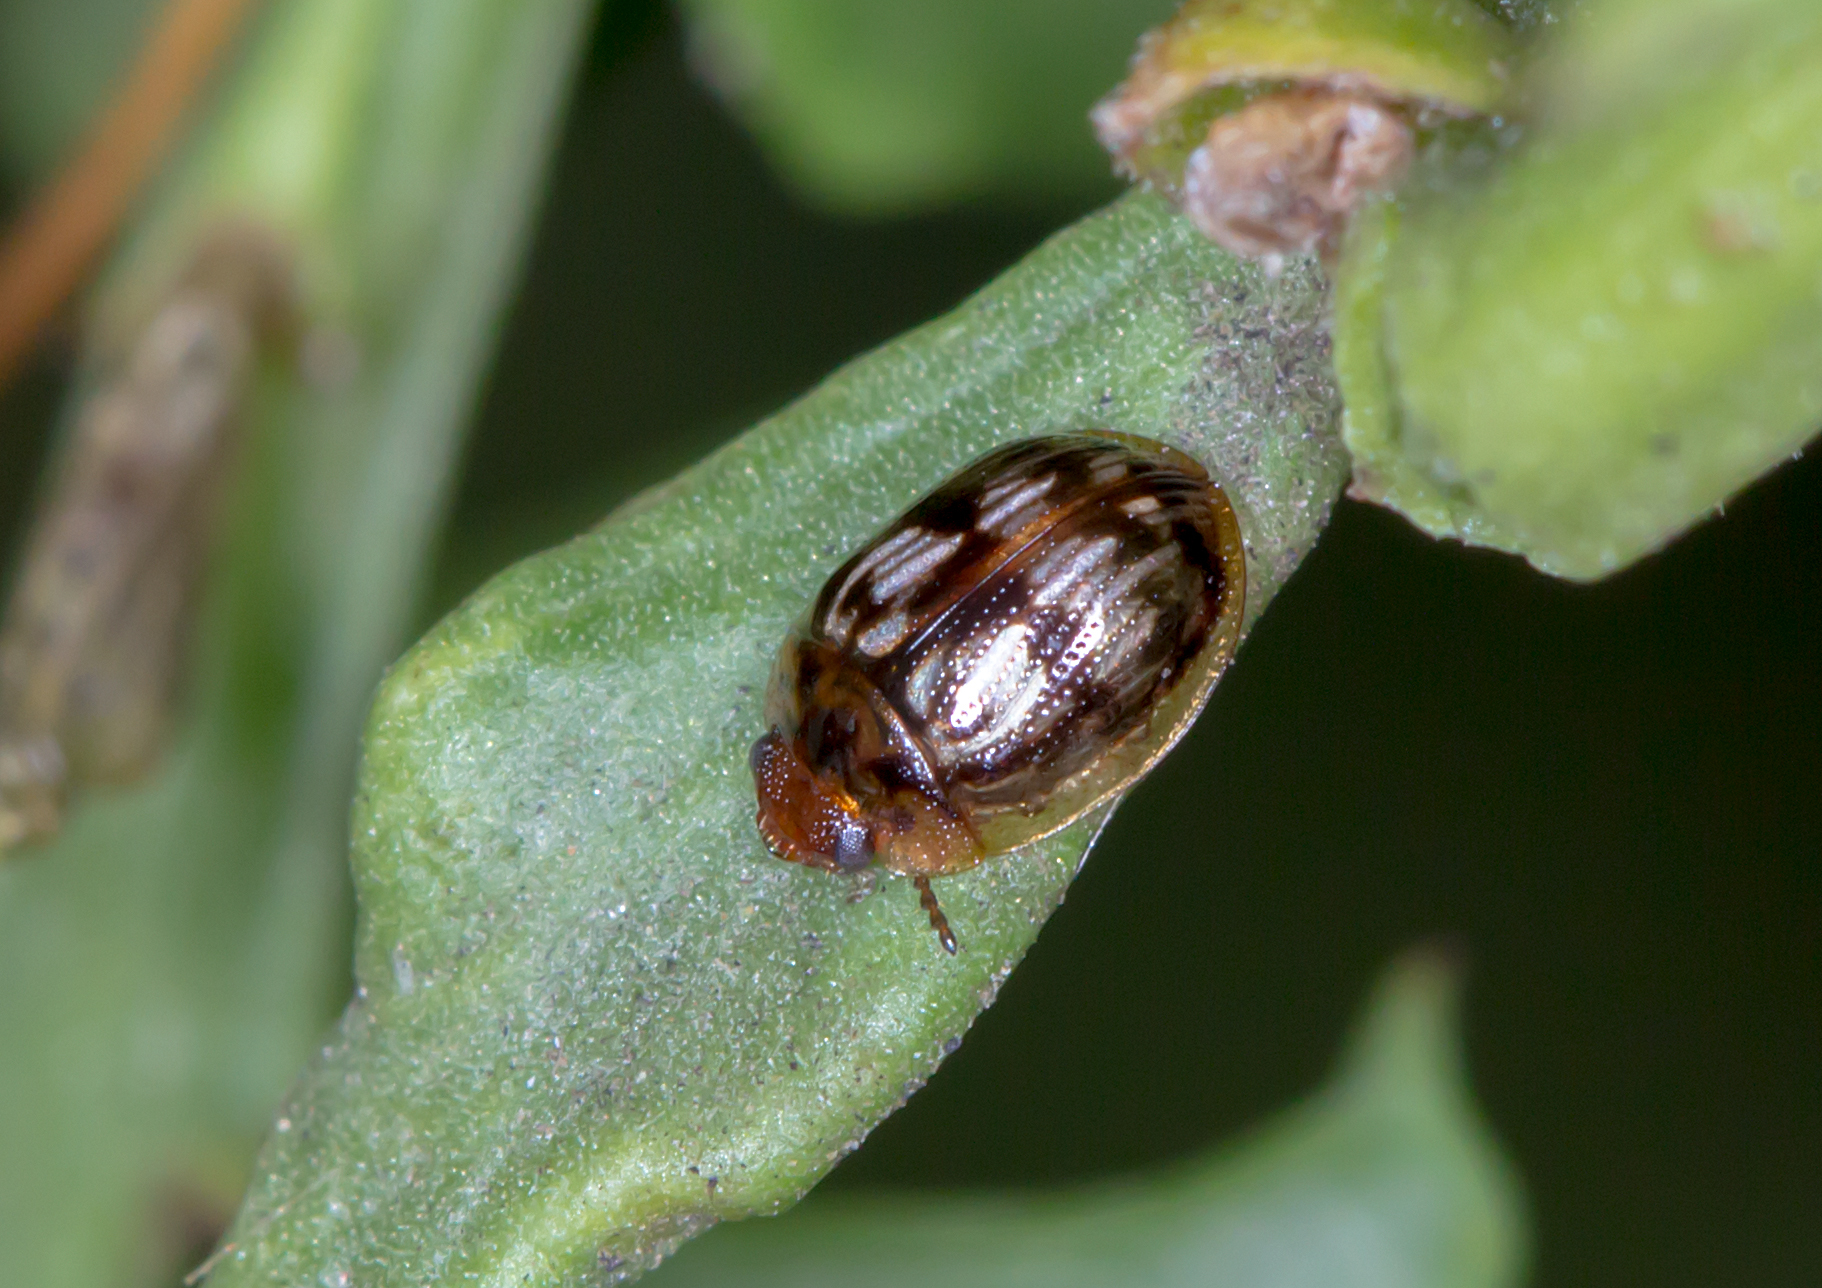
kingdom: Animalia
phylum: Arthropoda
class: Insecta
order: Coleoptera
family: Chrysomelidae
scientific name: Chrysomelidae
